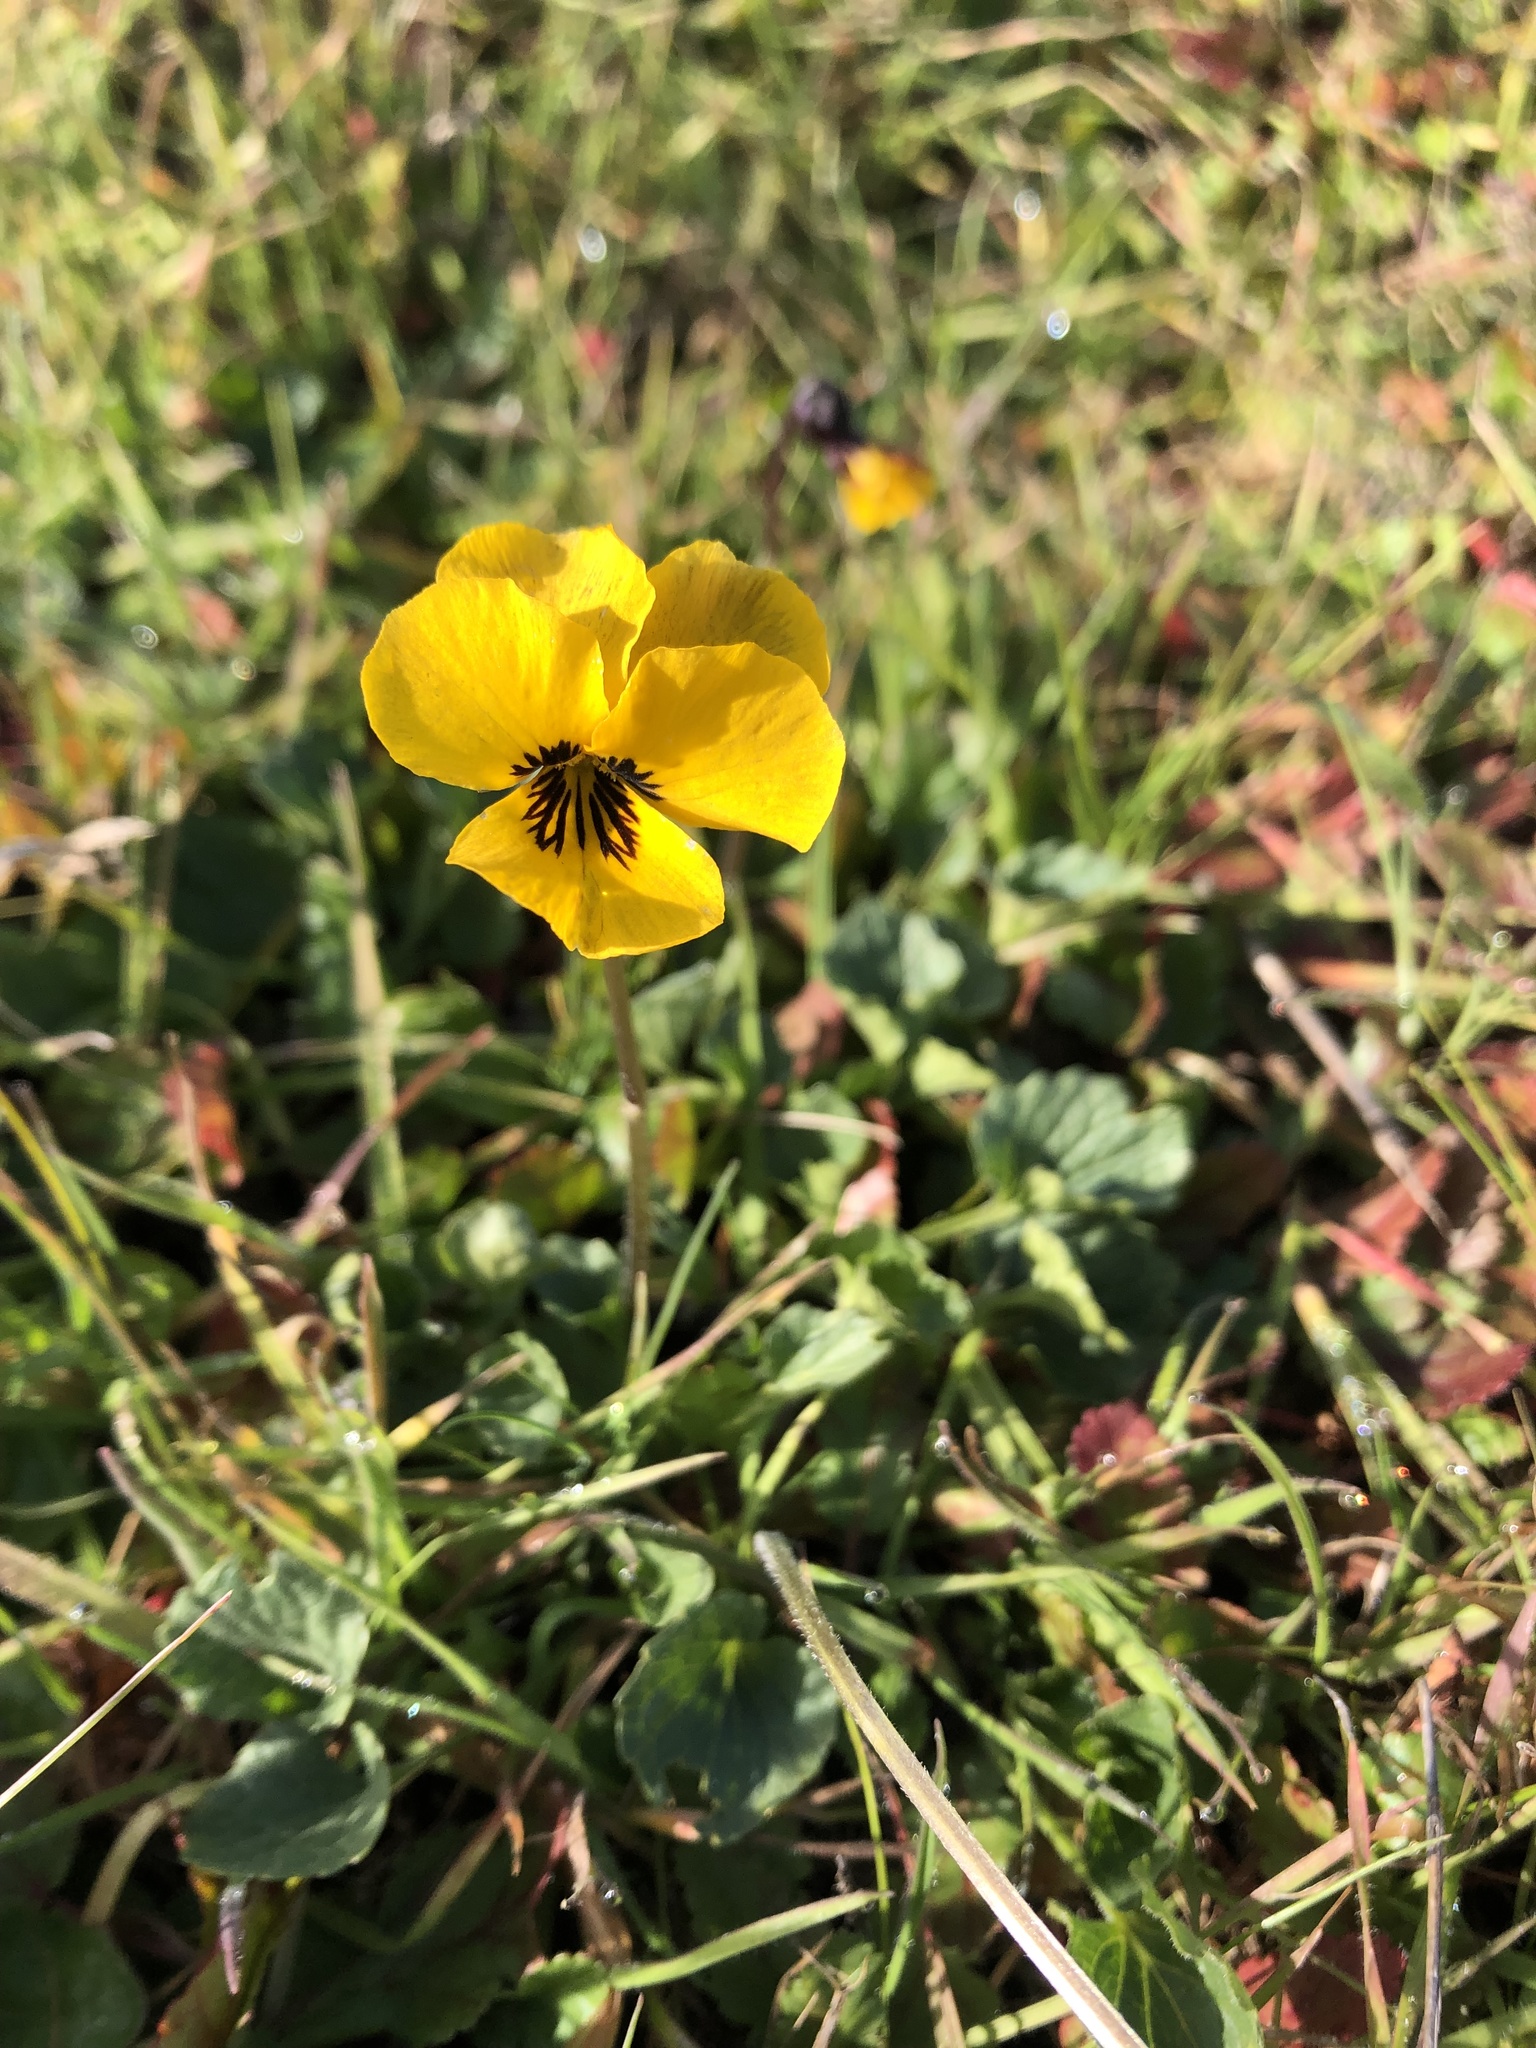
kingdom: Plantae
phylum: Tracheophyta
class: Magnoliopsida
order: Malpighiales
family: Violaceae
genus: Viola
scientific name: Viola pedunculata
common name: California golden violet
